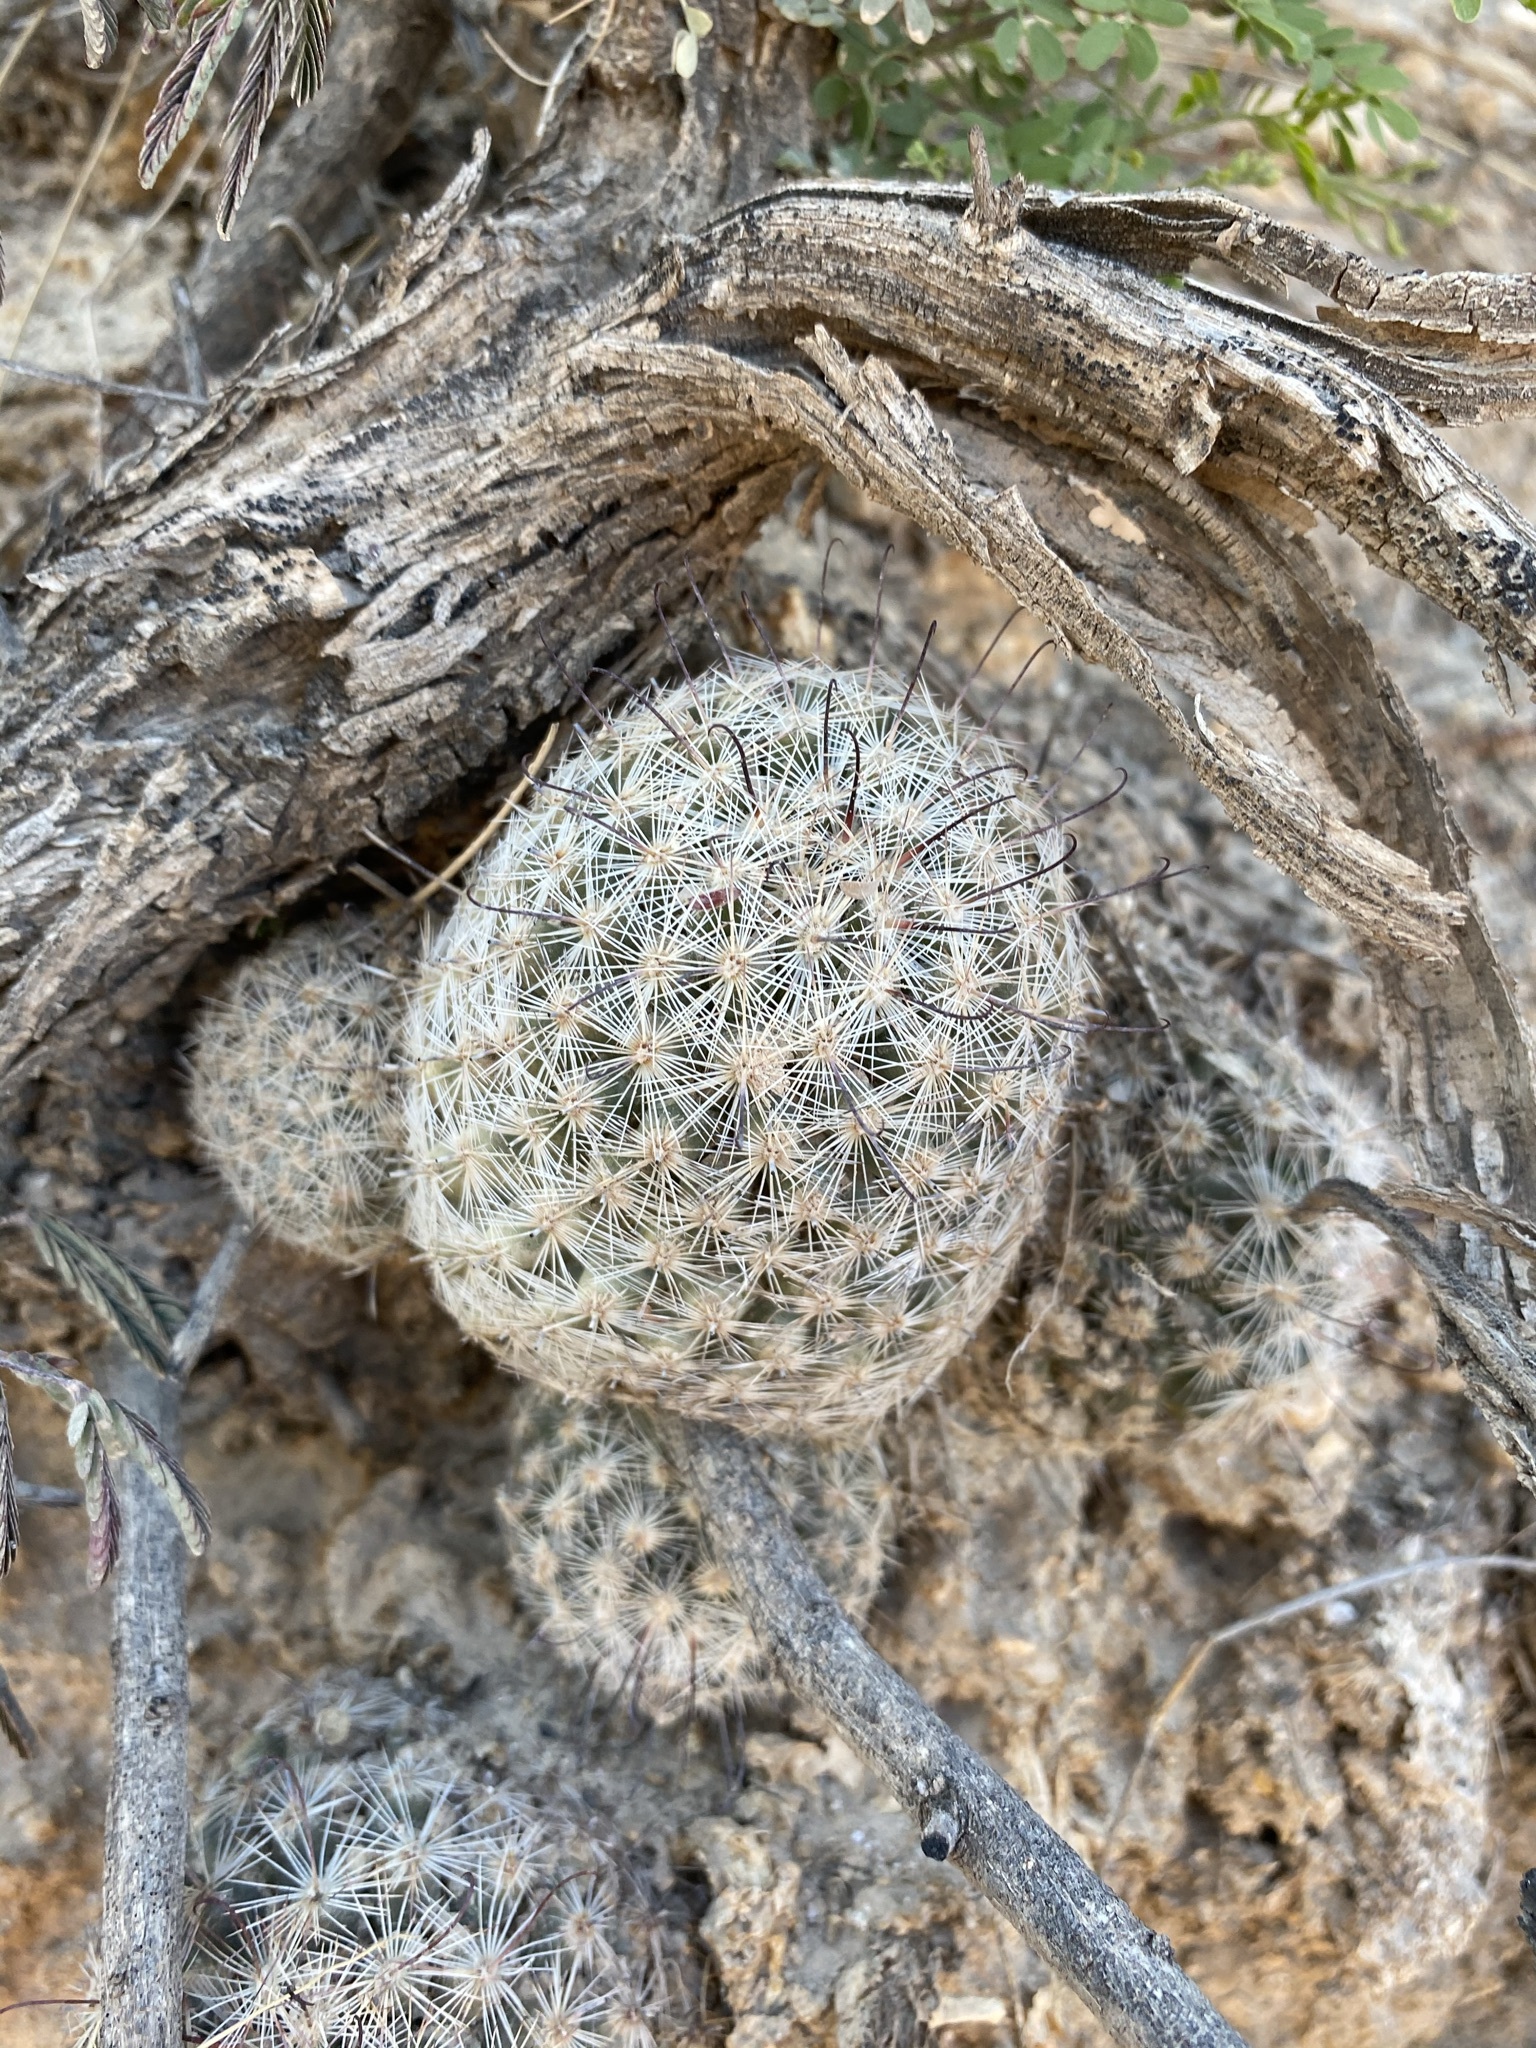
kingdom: Plantae
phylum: Tracheophyta
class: Magnoliopsida
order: Caryophyllales
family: Cactaceae
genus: Cochemiea
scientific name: Cochemiea grahamii
